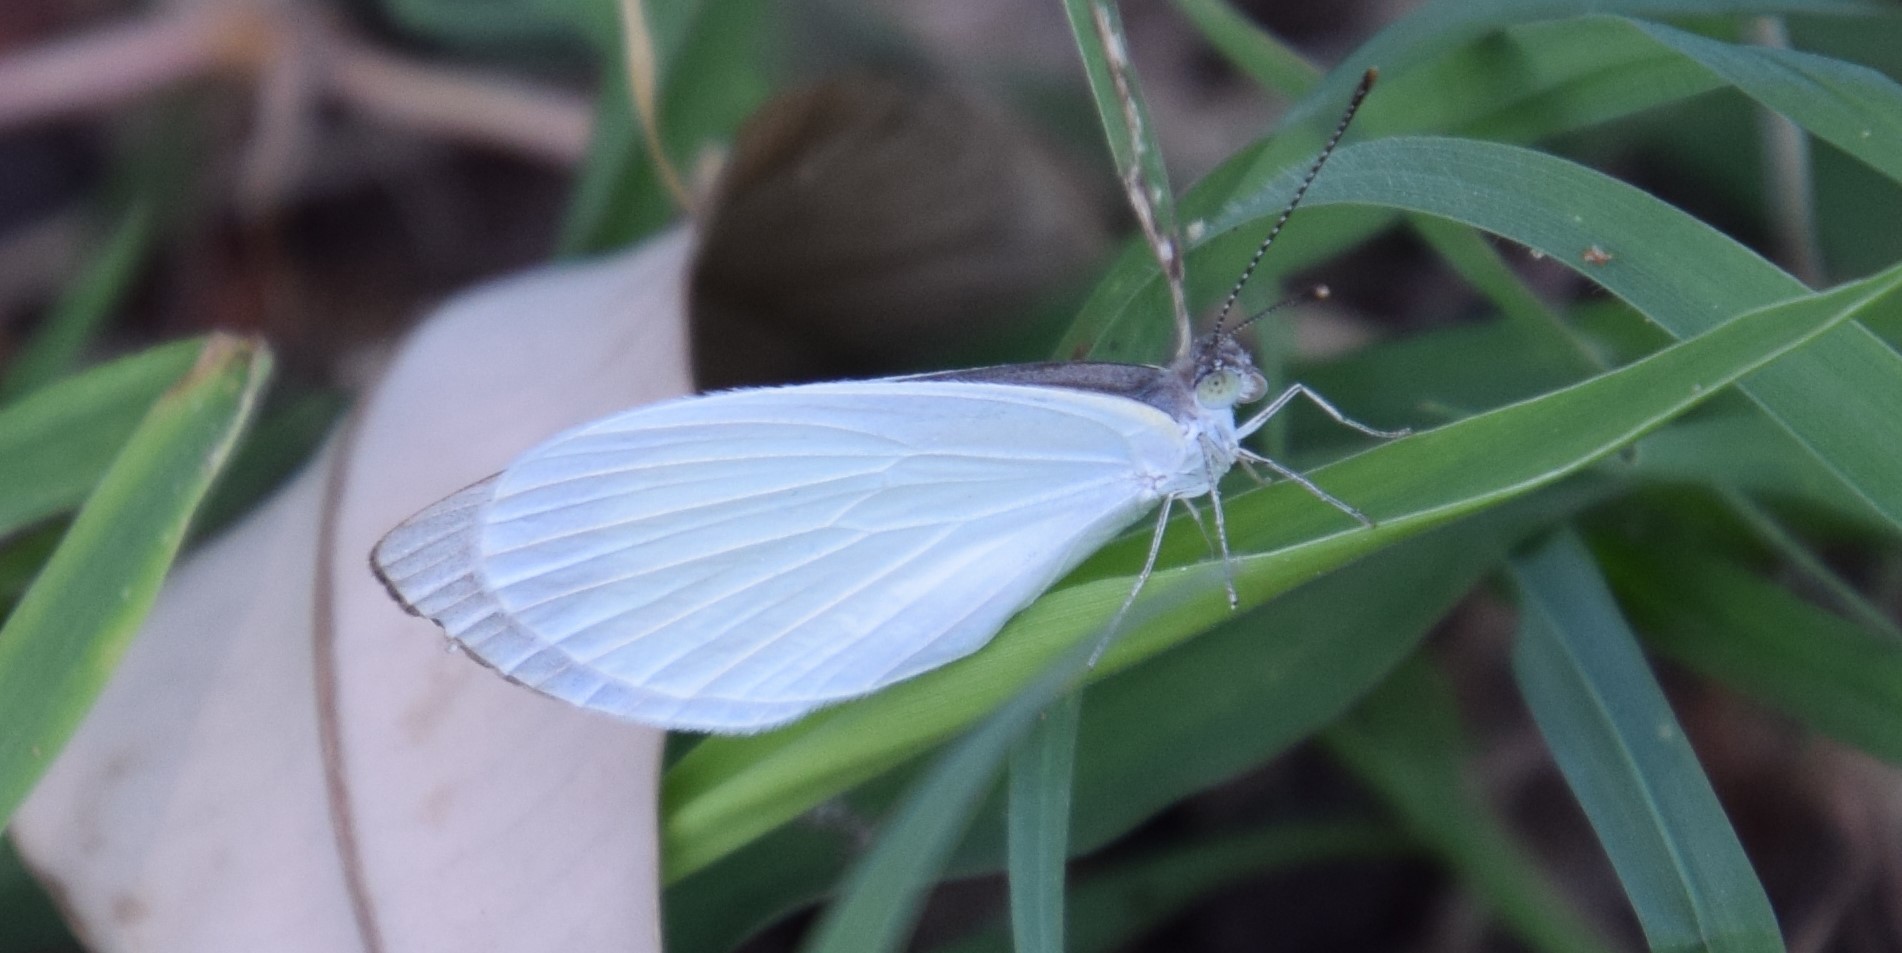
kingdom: Animalia
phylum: Arthropoda
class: Insecta
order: Lepidoptera
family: Pieridae
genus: Elodina
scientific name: Elodina walkeri
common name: Small pearl-white
